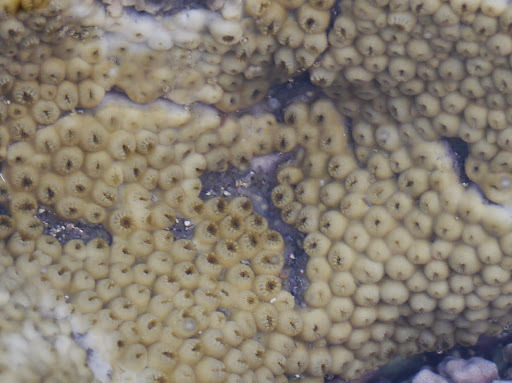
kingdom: Animalia
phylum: Cnidaria
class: Anthozoa
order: Zoantharia
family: Sphenopidae
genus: Palythoa
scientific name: Palythoa caribaeorum
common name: Encrusting colonial anemone
